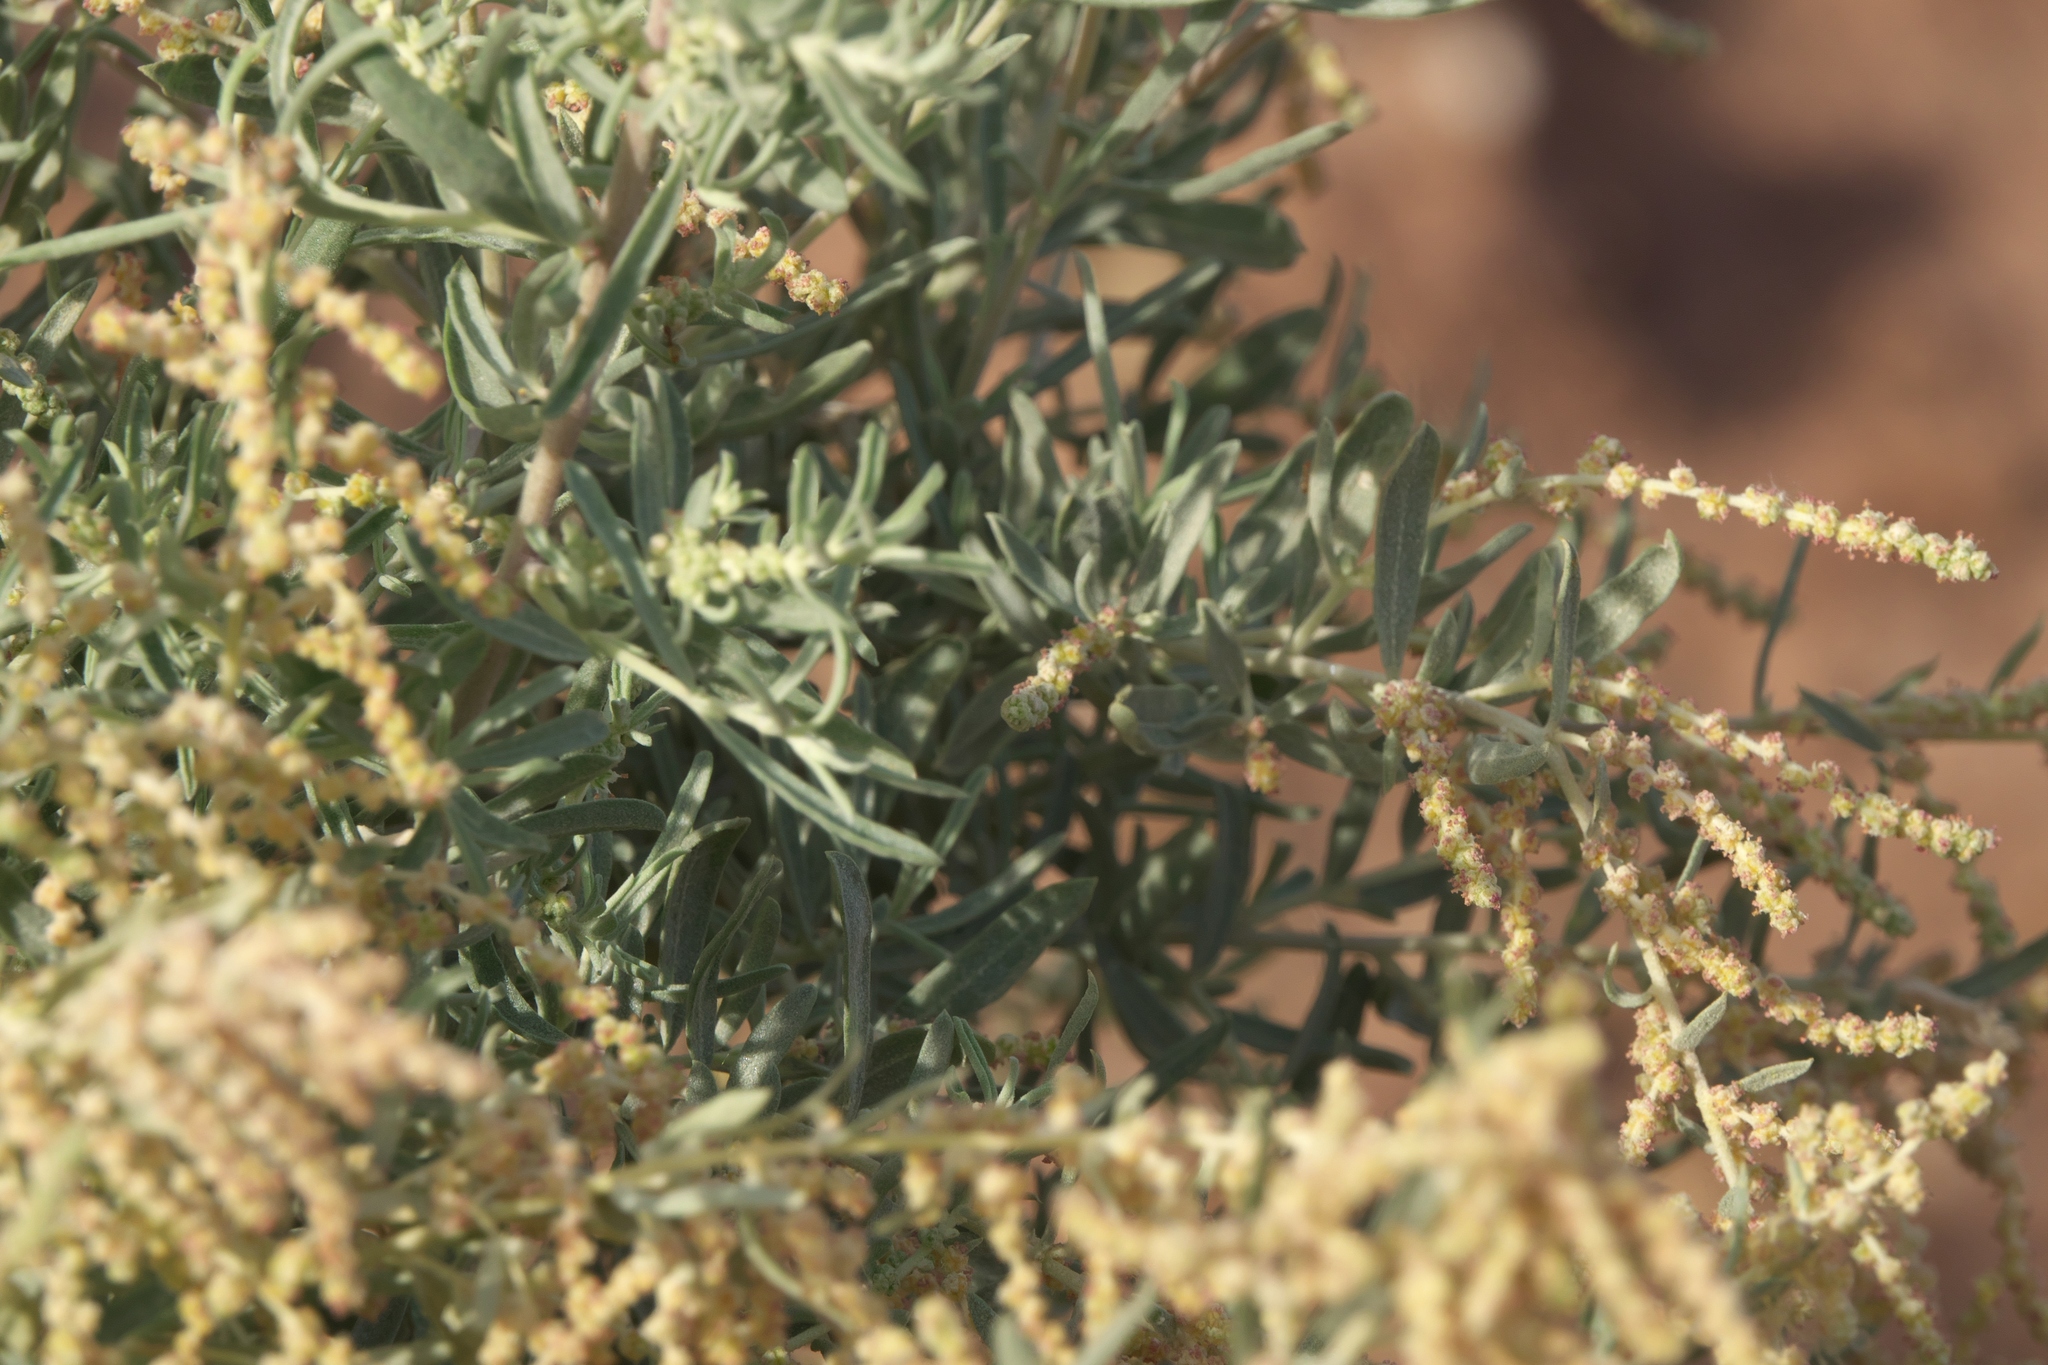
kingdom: Plantae
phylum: Tracheophyta
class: Magnoliopsida
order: Caryophyllales
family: Amaranthaceae
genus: Atriplex
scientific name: Atriplex canescens
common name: Four-wing saltbush
